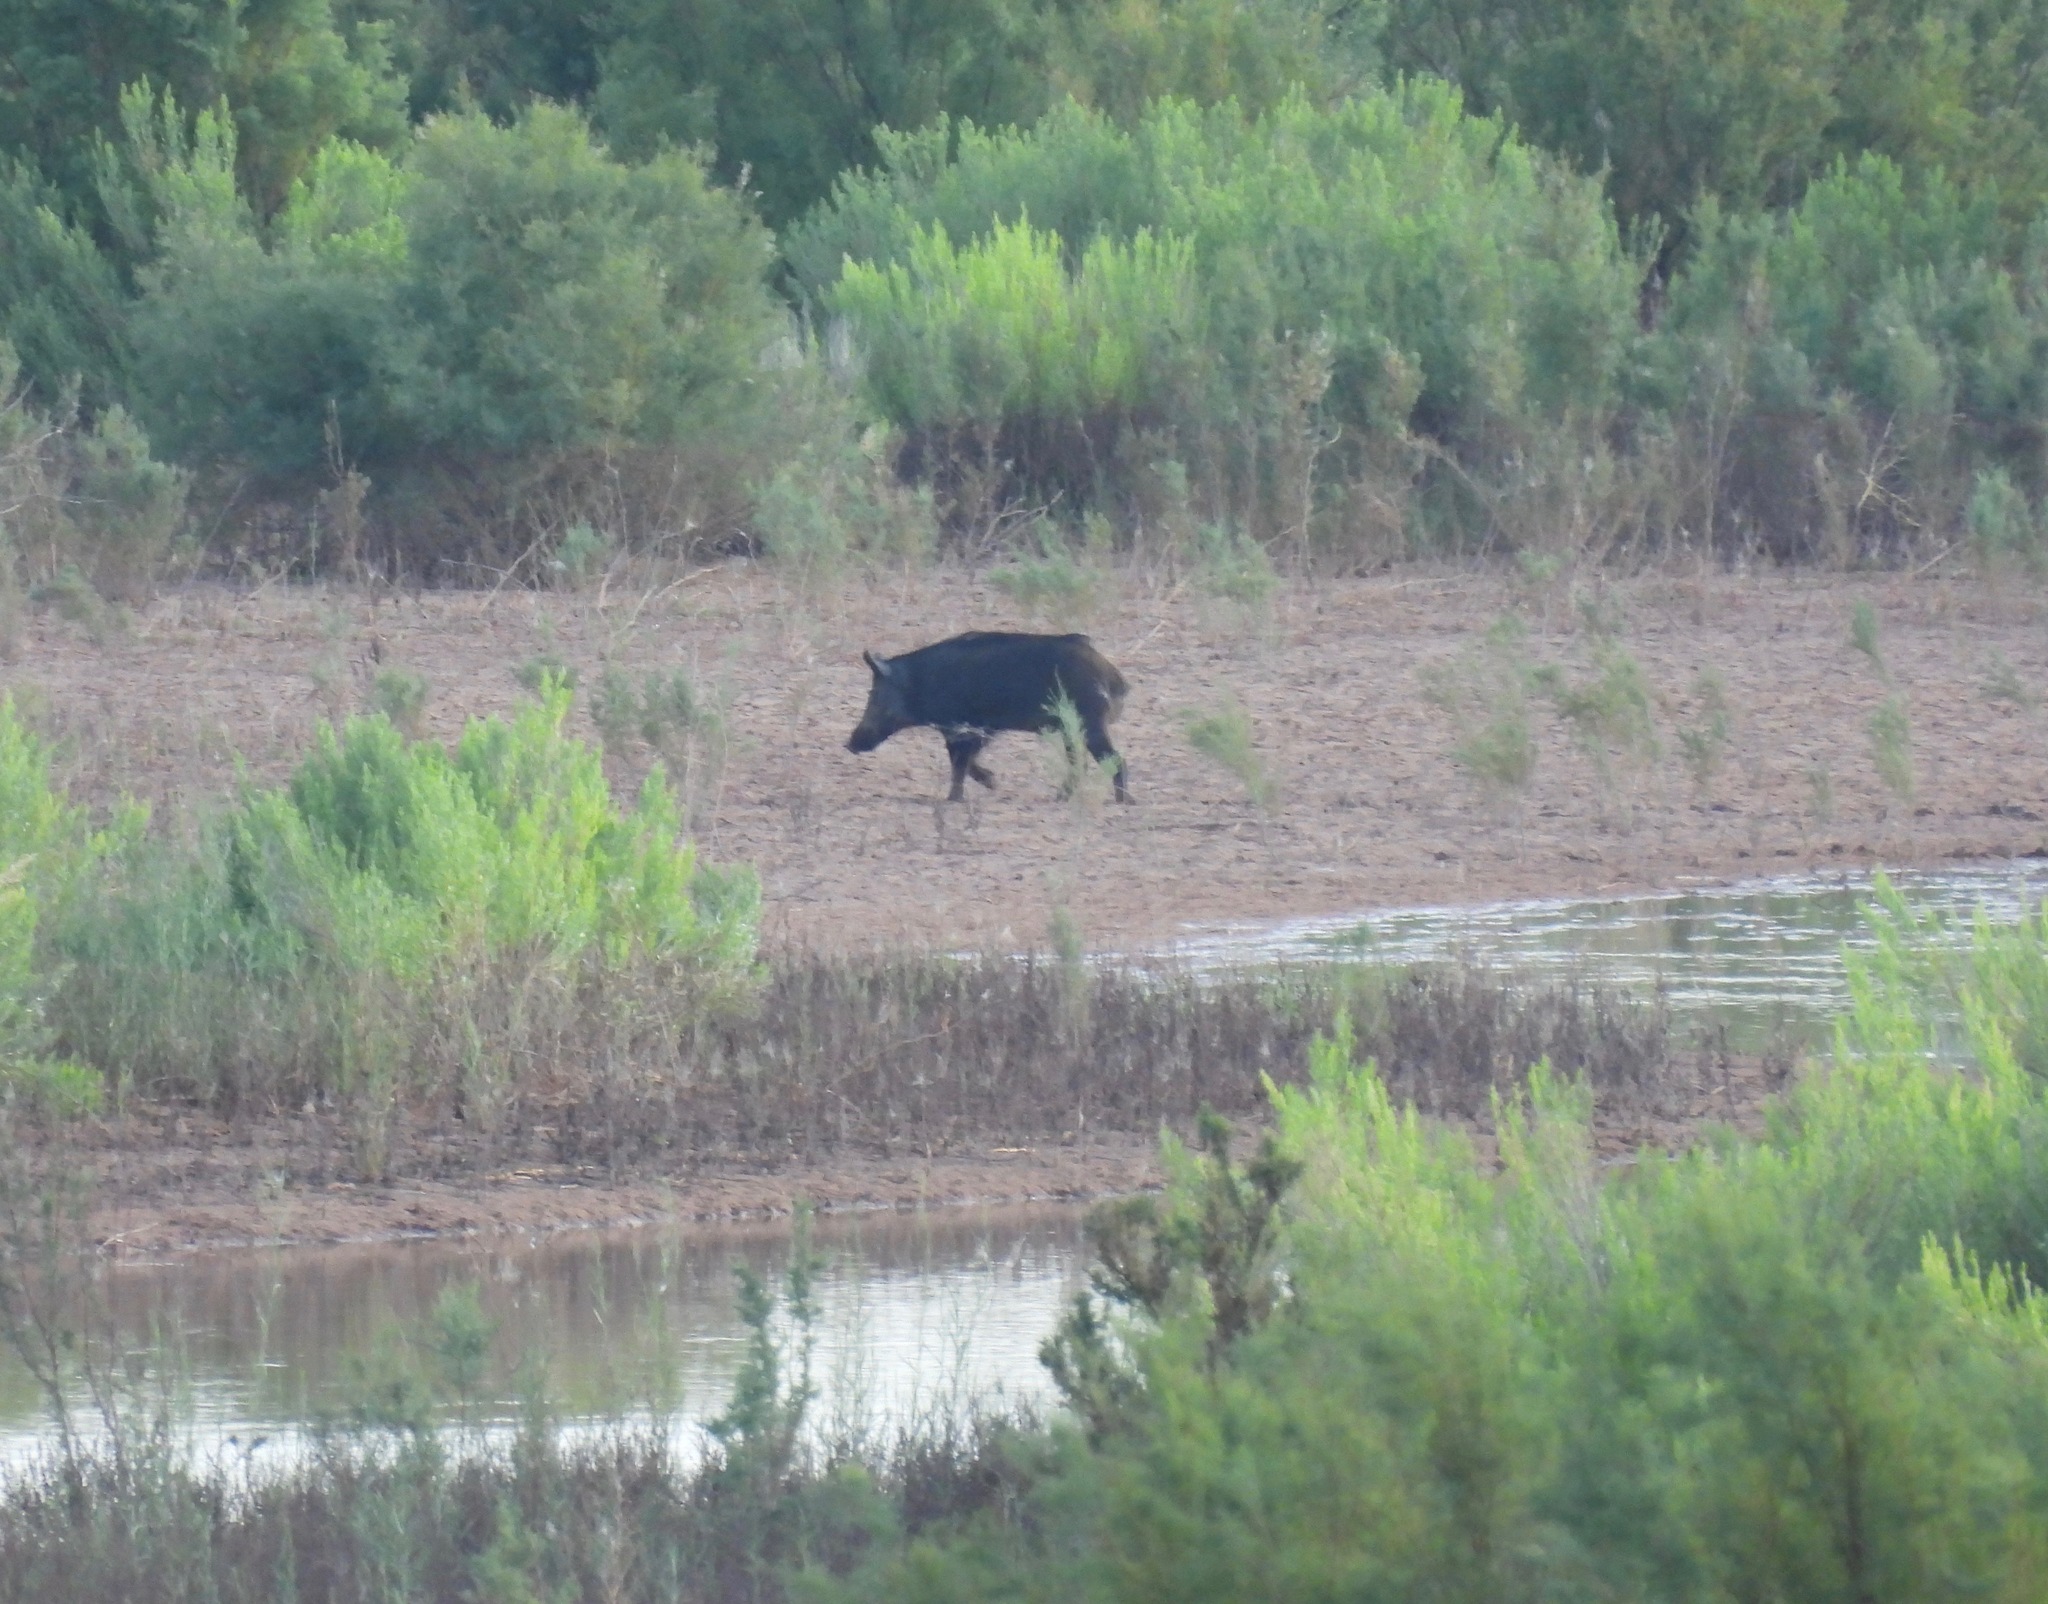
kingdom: Animalia
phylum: Chordata
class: Mammalia
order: Artiodactyla
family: Suidae
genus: Sus
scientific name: Sus scrofa
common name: Wild boar
